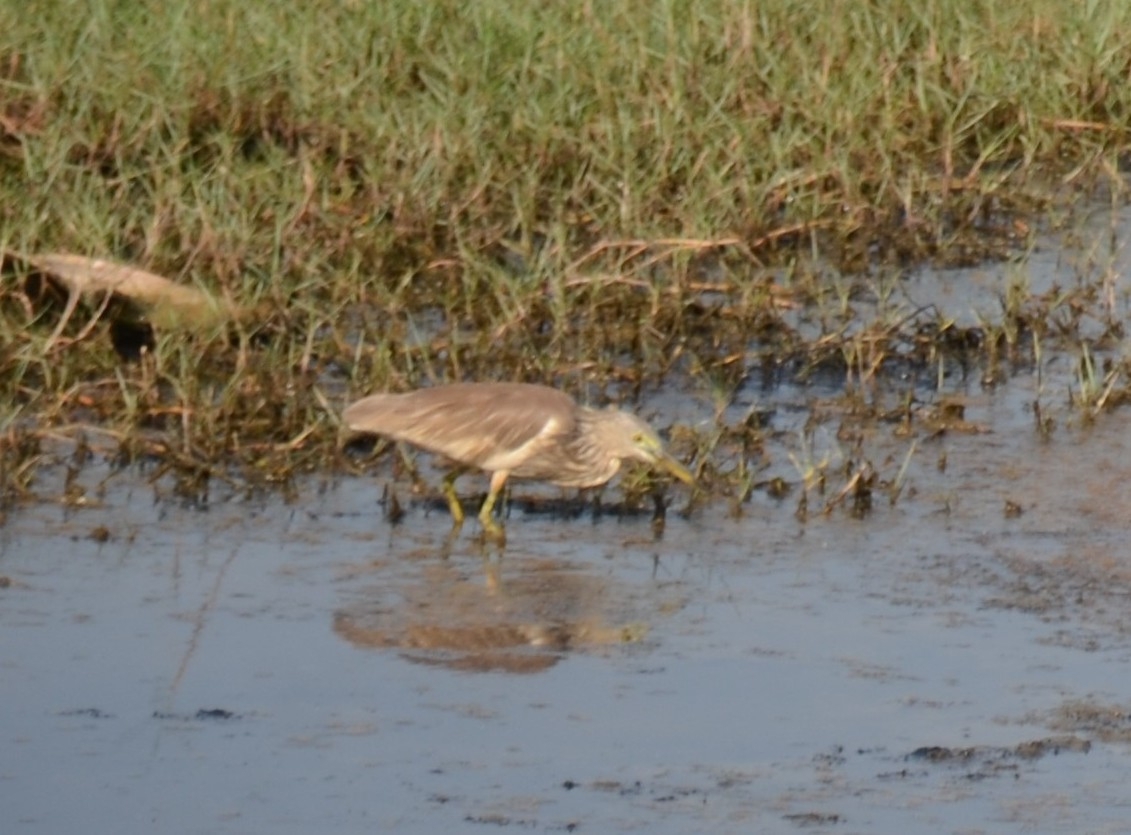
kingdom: Animalia
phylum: Chordata
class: Aves
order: Pelecaniformes
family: Ardeidae
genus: Ardeola
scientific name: Ardeola grayii
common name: Indian pond heron
